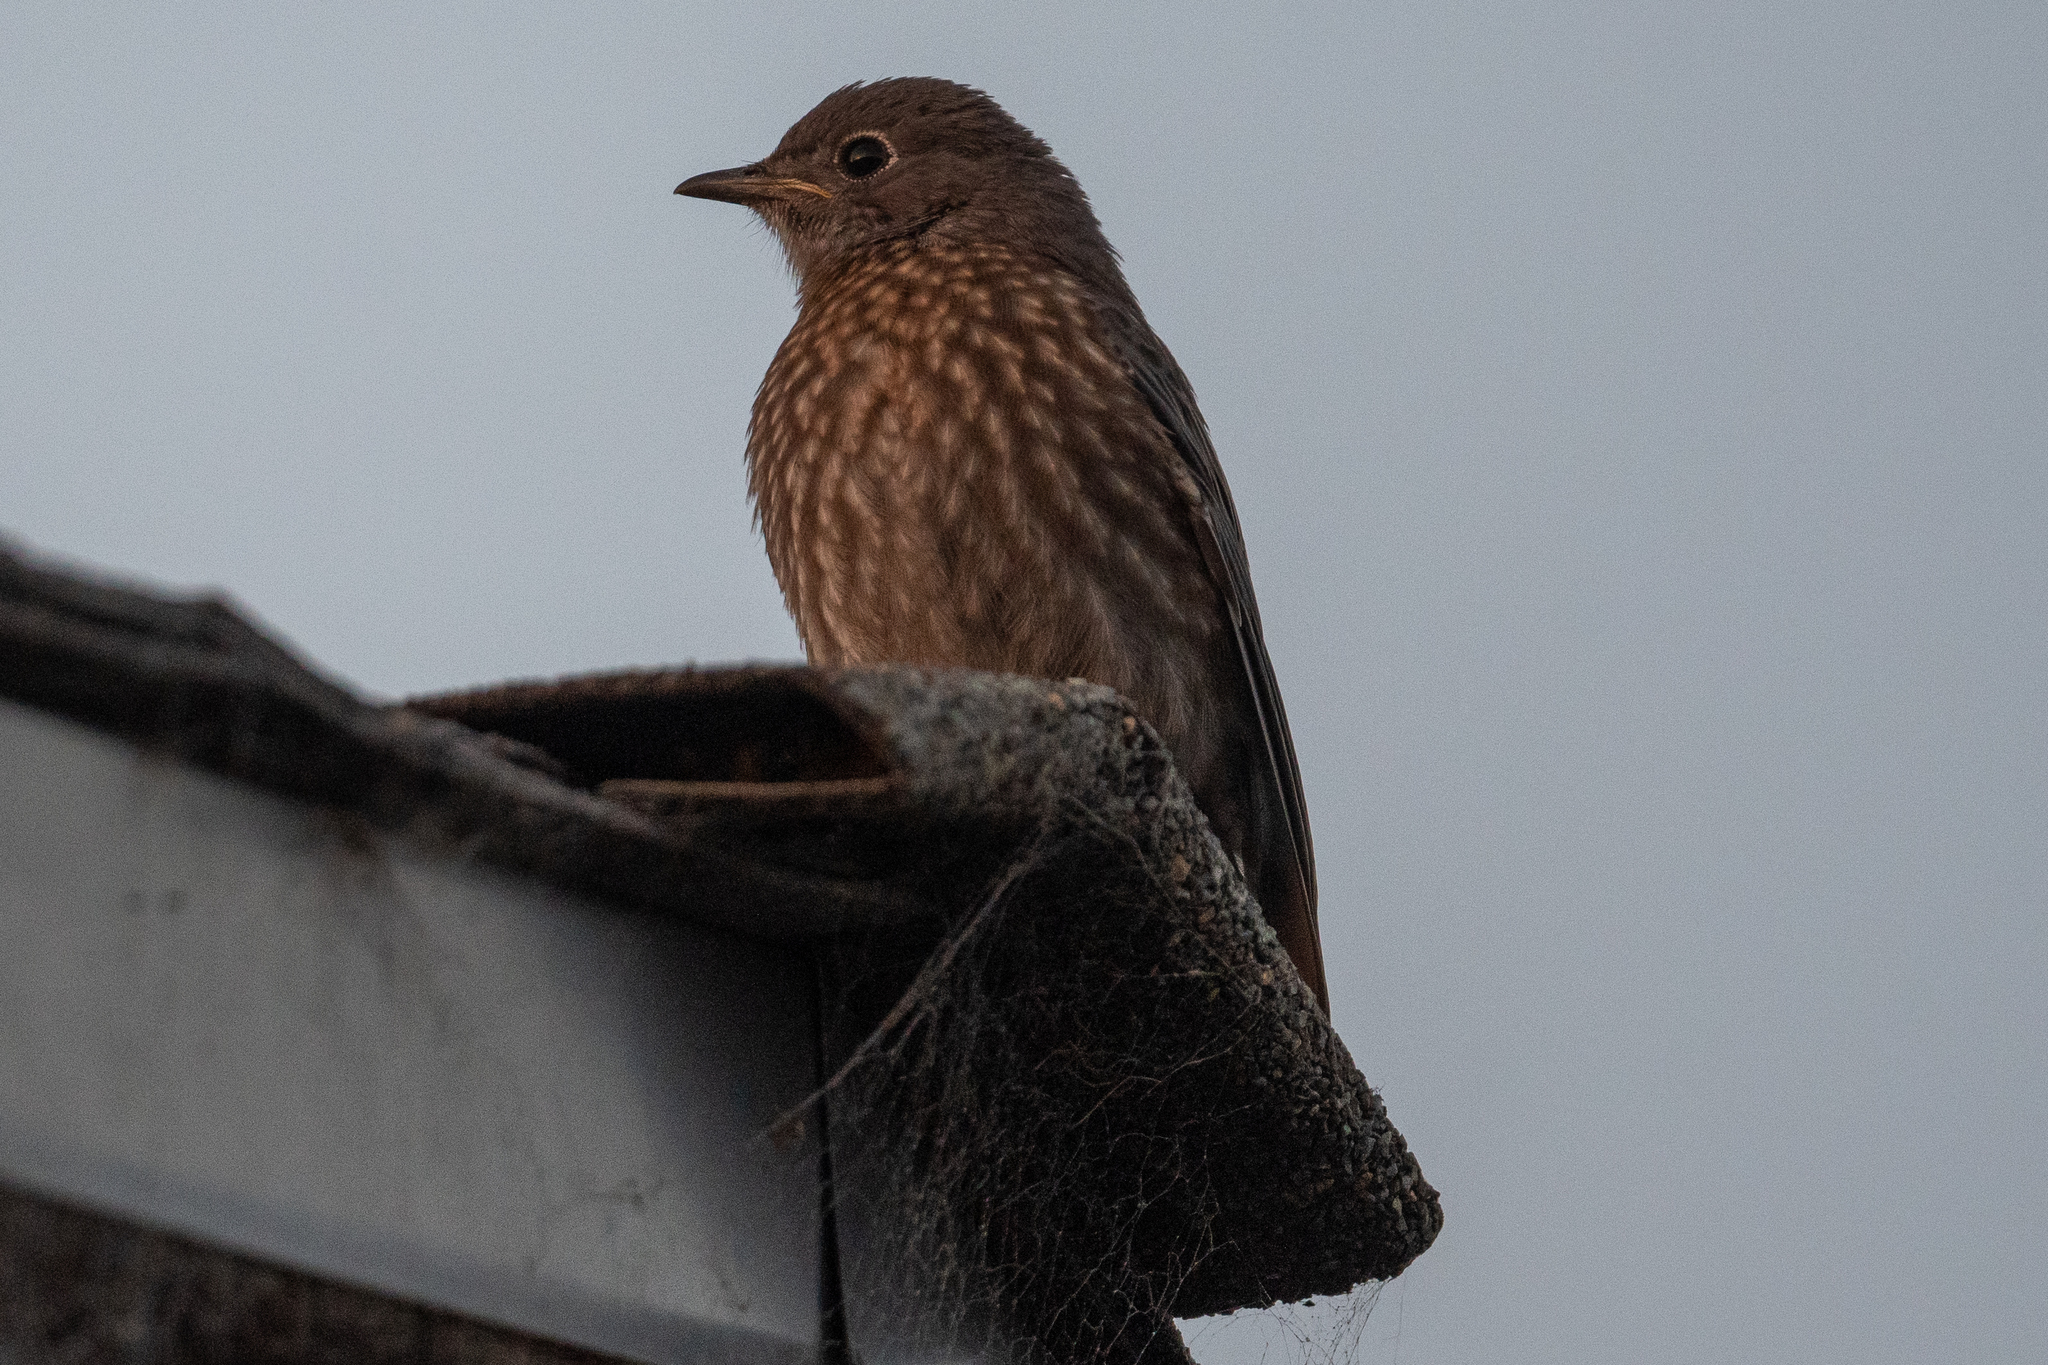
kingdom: Animalia
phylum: Chordata
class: Aves
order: Passeriformes
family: Turdidae
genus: Sialia
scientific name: Sialia mexicana
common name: Western bluebird
